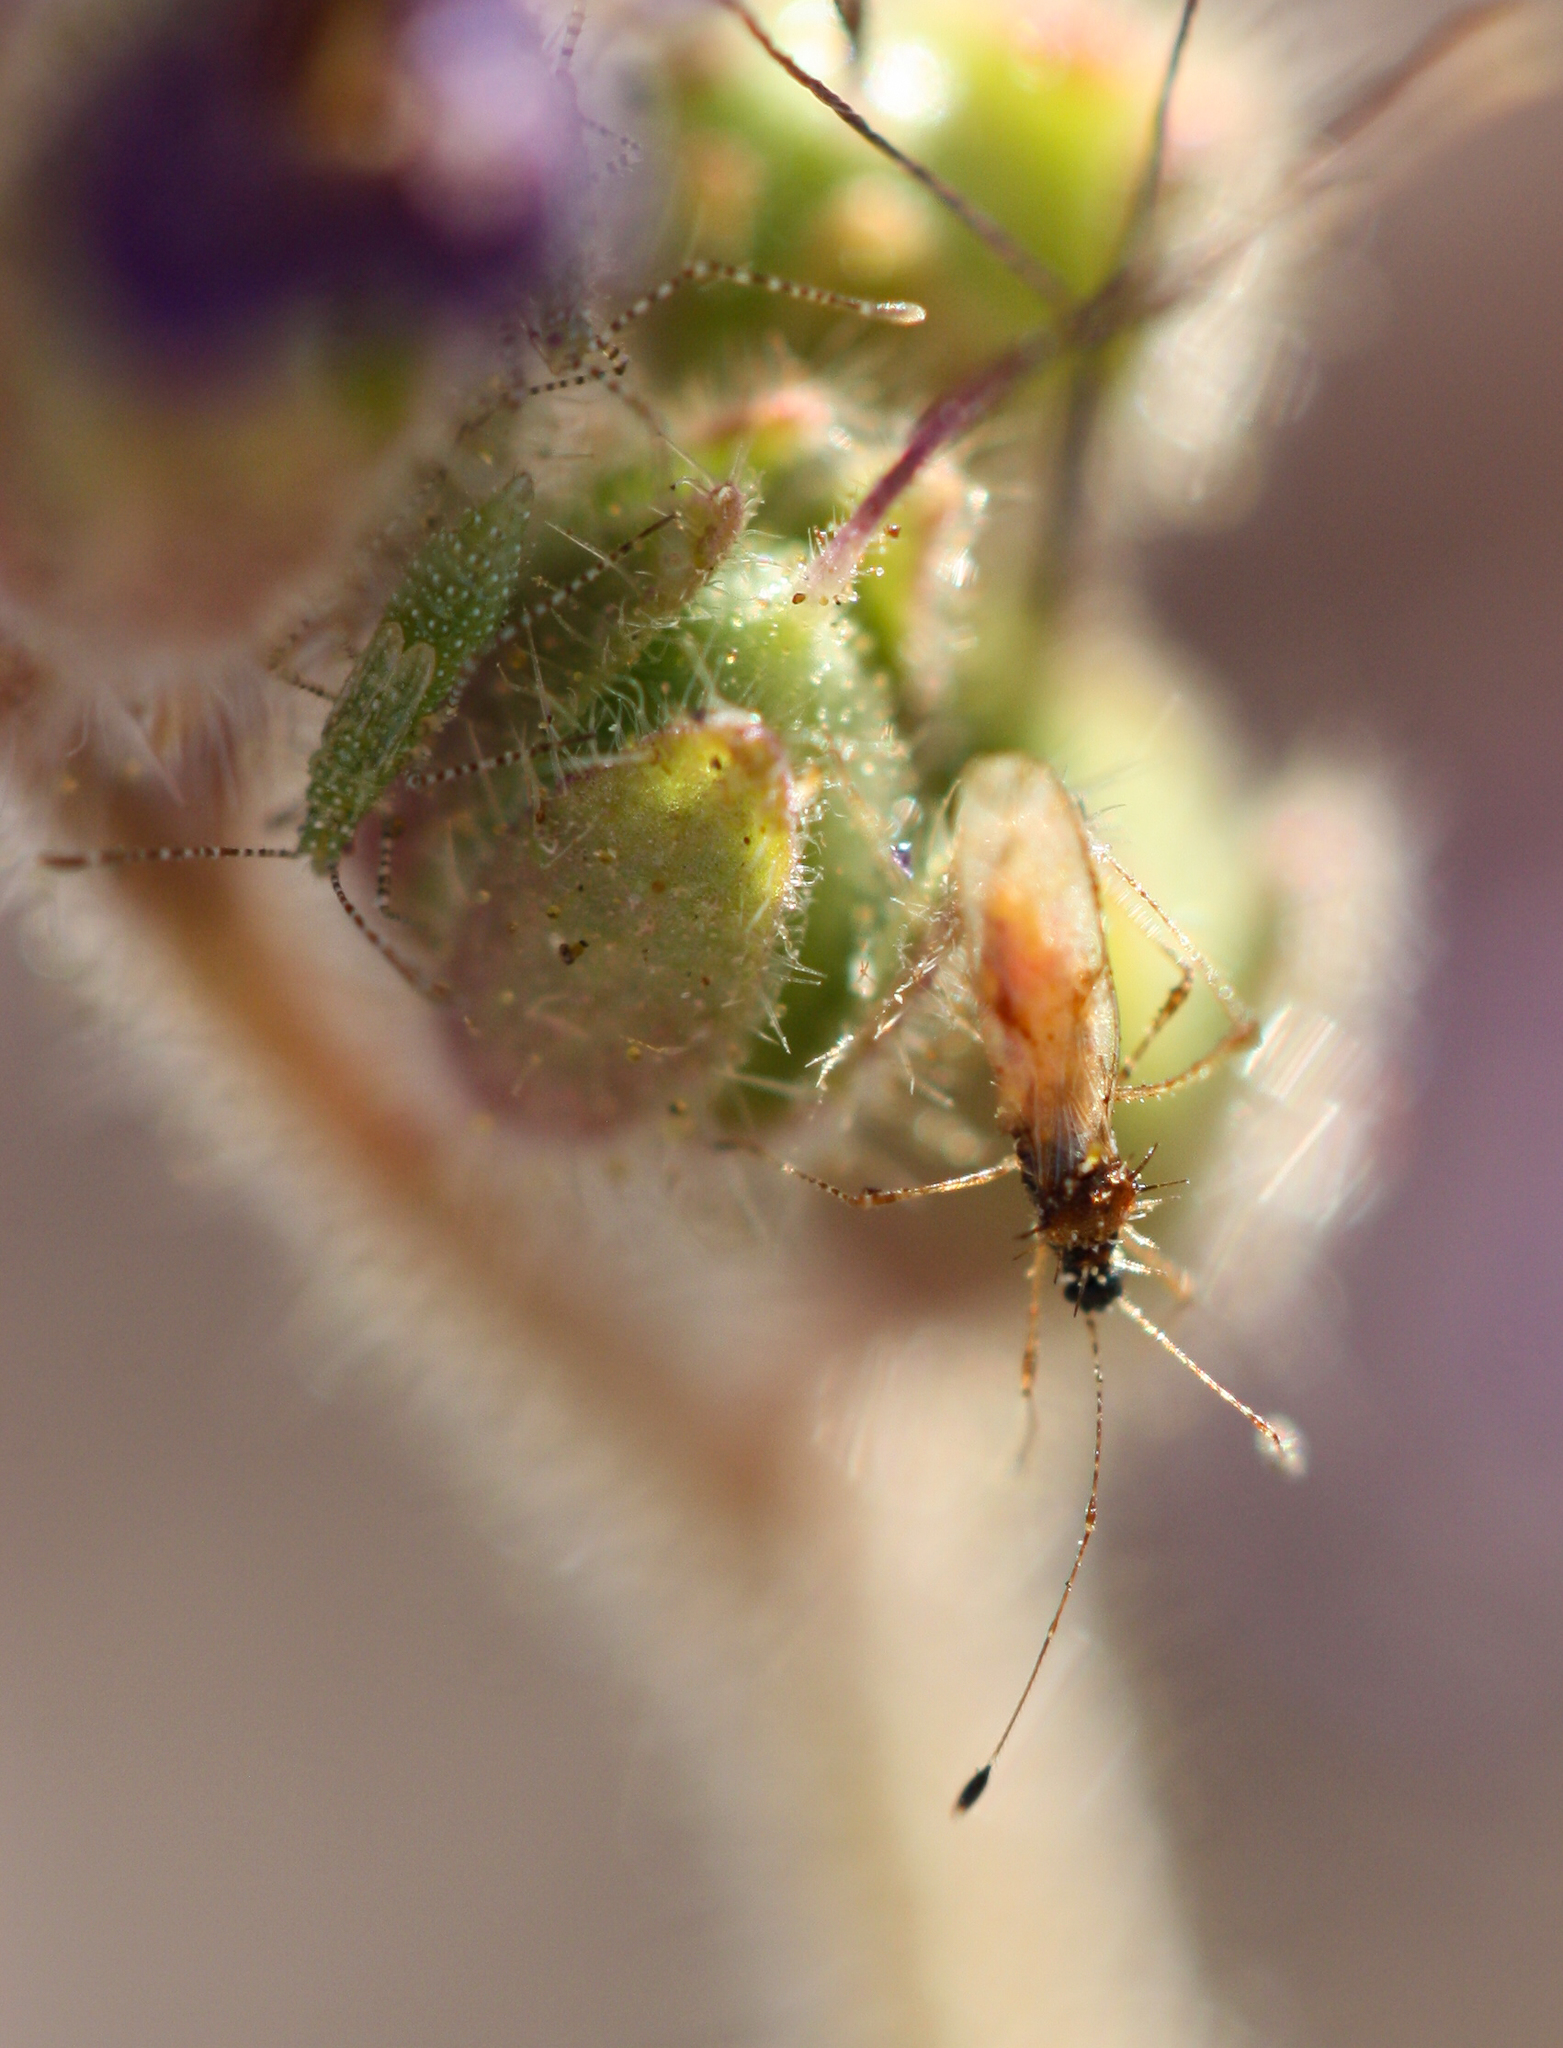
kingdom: Animalia
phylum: Arthropoda
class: Insecta
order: Hemiptera
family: Berytidae
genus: Pronotacantha
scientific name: Pronotacantha annulata
